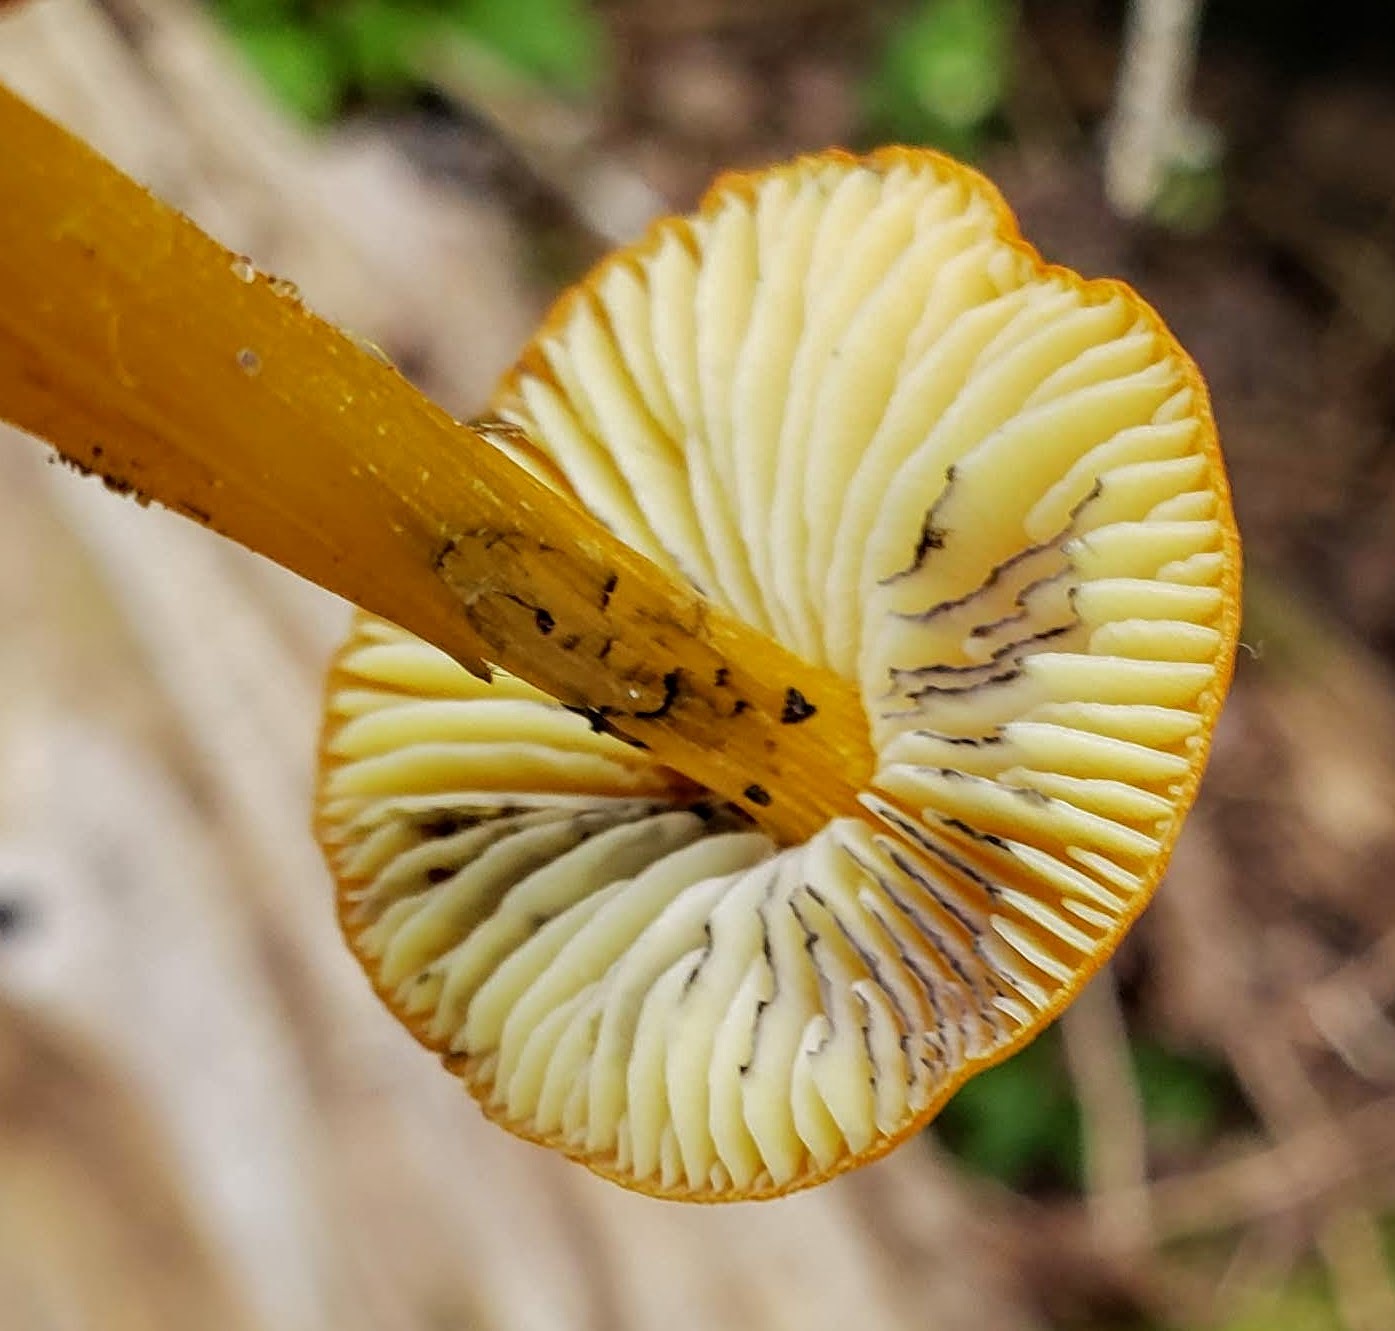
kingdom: Fungi
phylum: Basidiomycota
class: Agaricomycetes
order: Agaricales
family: Hygrophoraceae
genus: Hygrocybe
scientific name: Hygrocybe conica
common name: Blackening wax-cap
